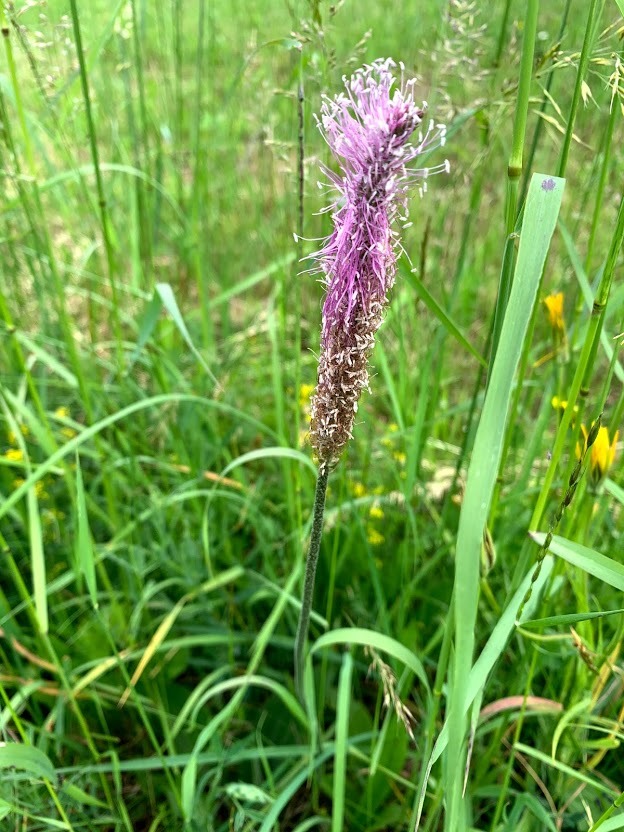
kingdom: Plantae
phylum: Tracheophyta
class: Magnoliopsida
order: Lamiales
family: Plantaginaceae
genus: Plantago
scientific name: Plantago media
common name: Hoary plantain
